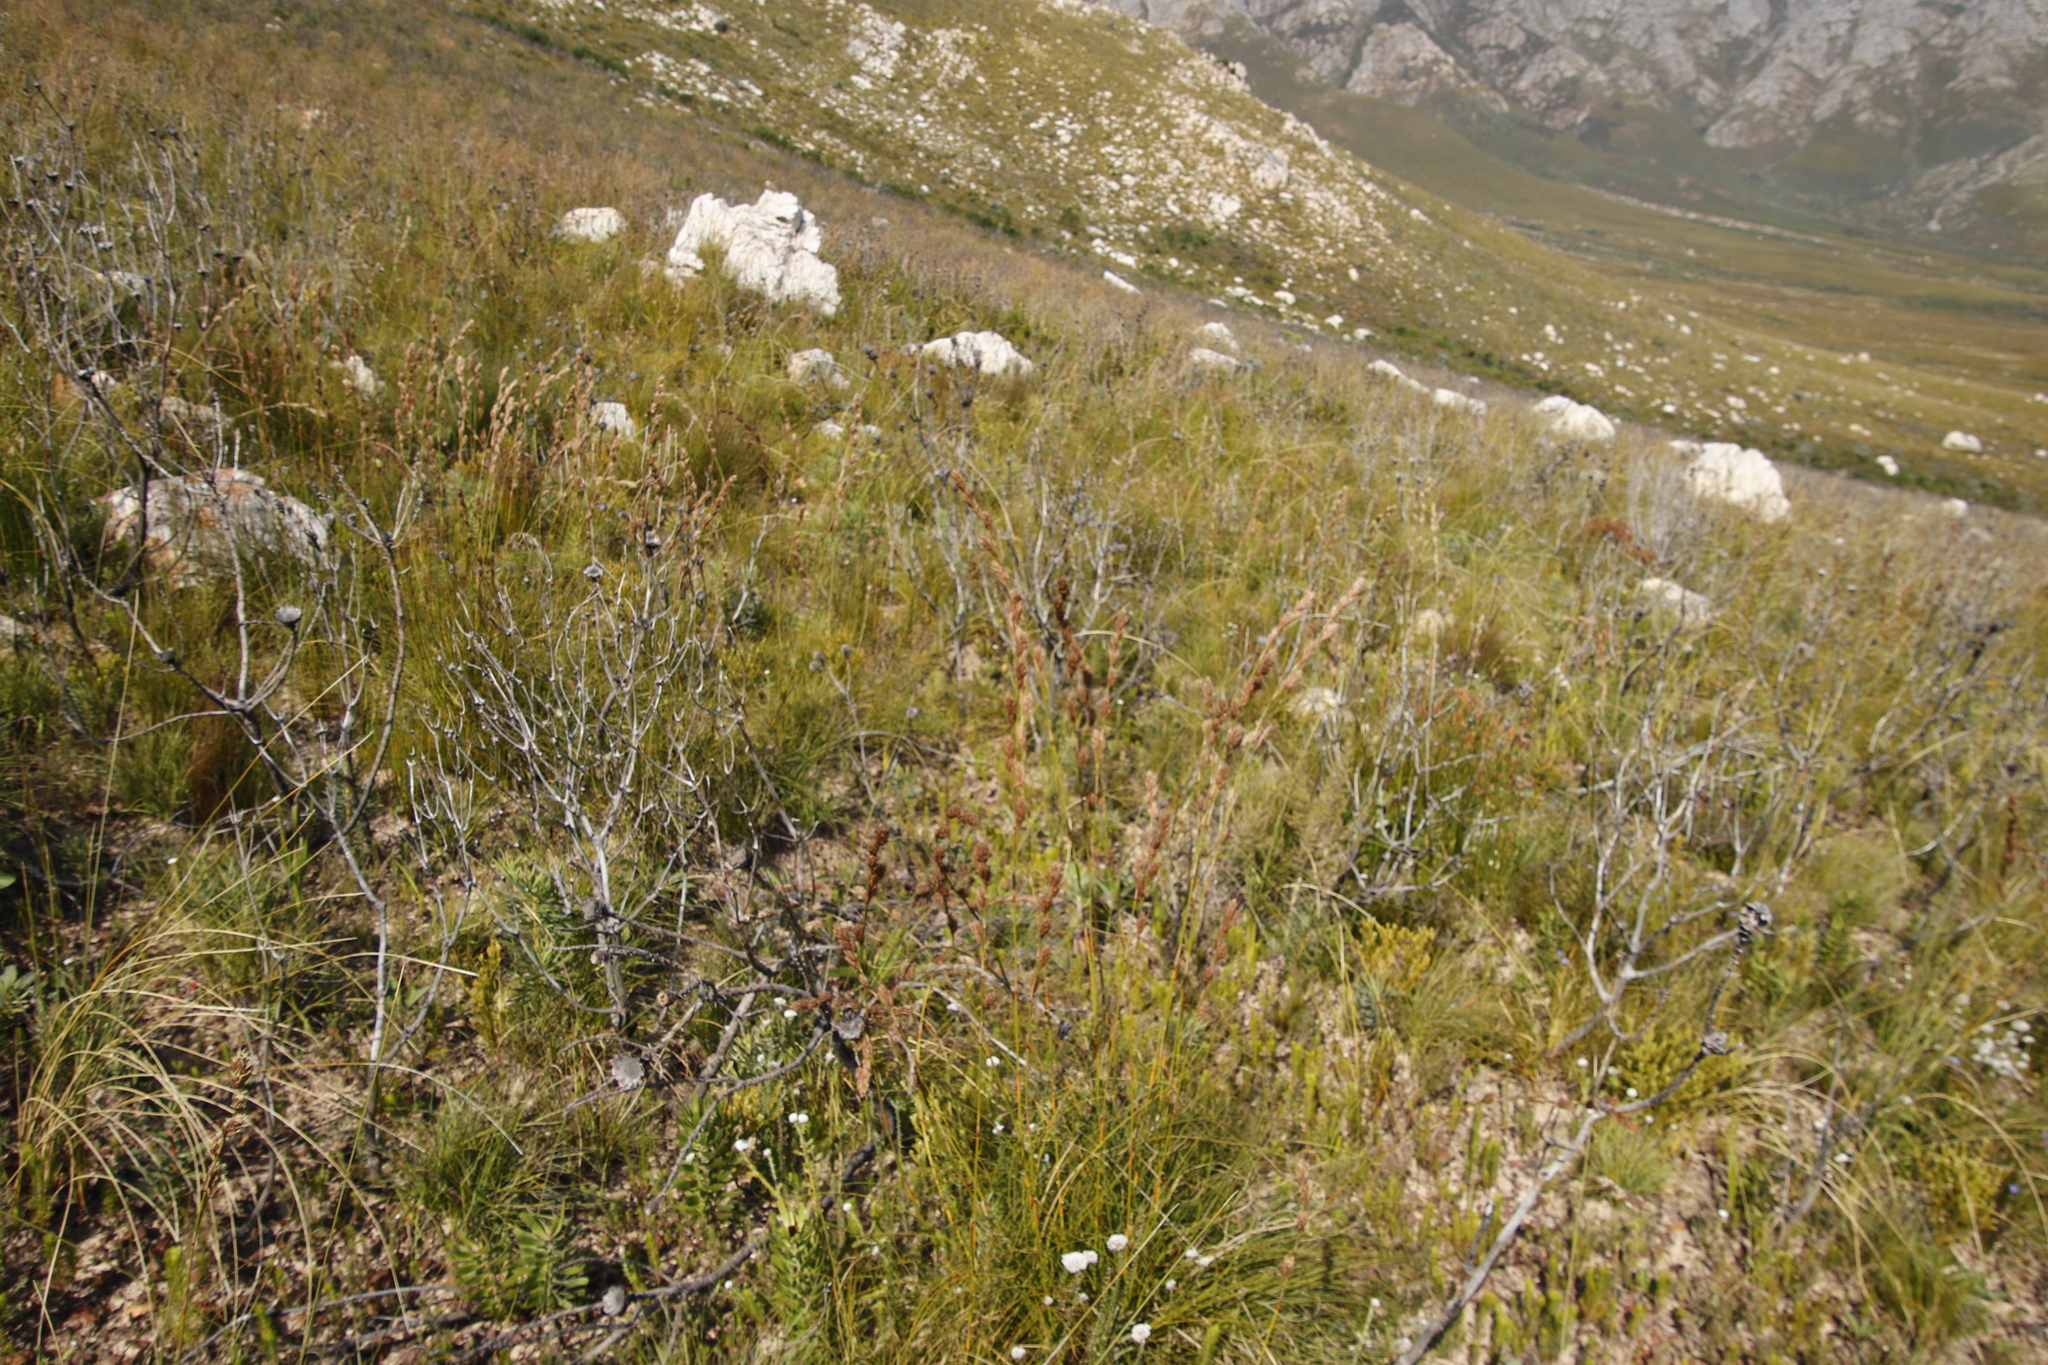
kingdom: Plantae
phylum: Tracheophyta
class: Liliopsida
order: Poales
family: Cyperaceae
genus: Tetraria
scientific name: Tetraria bromoides
